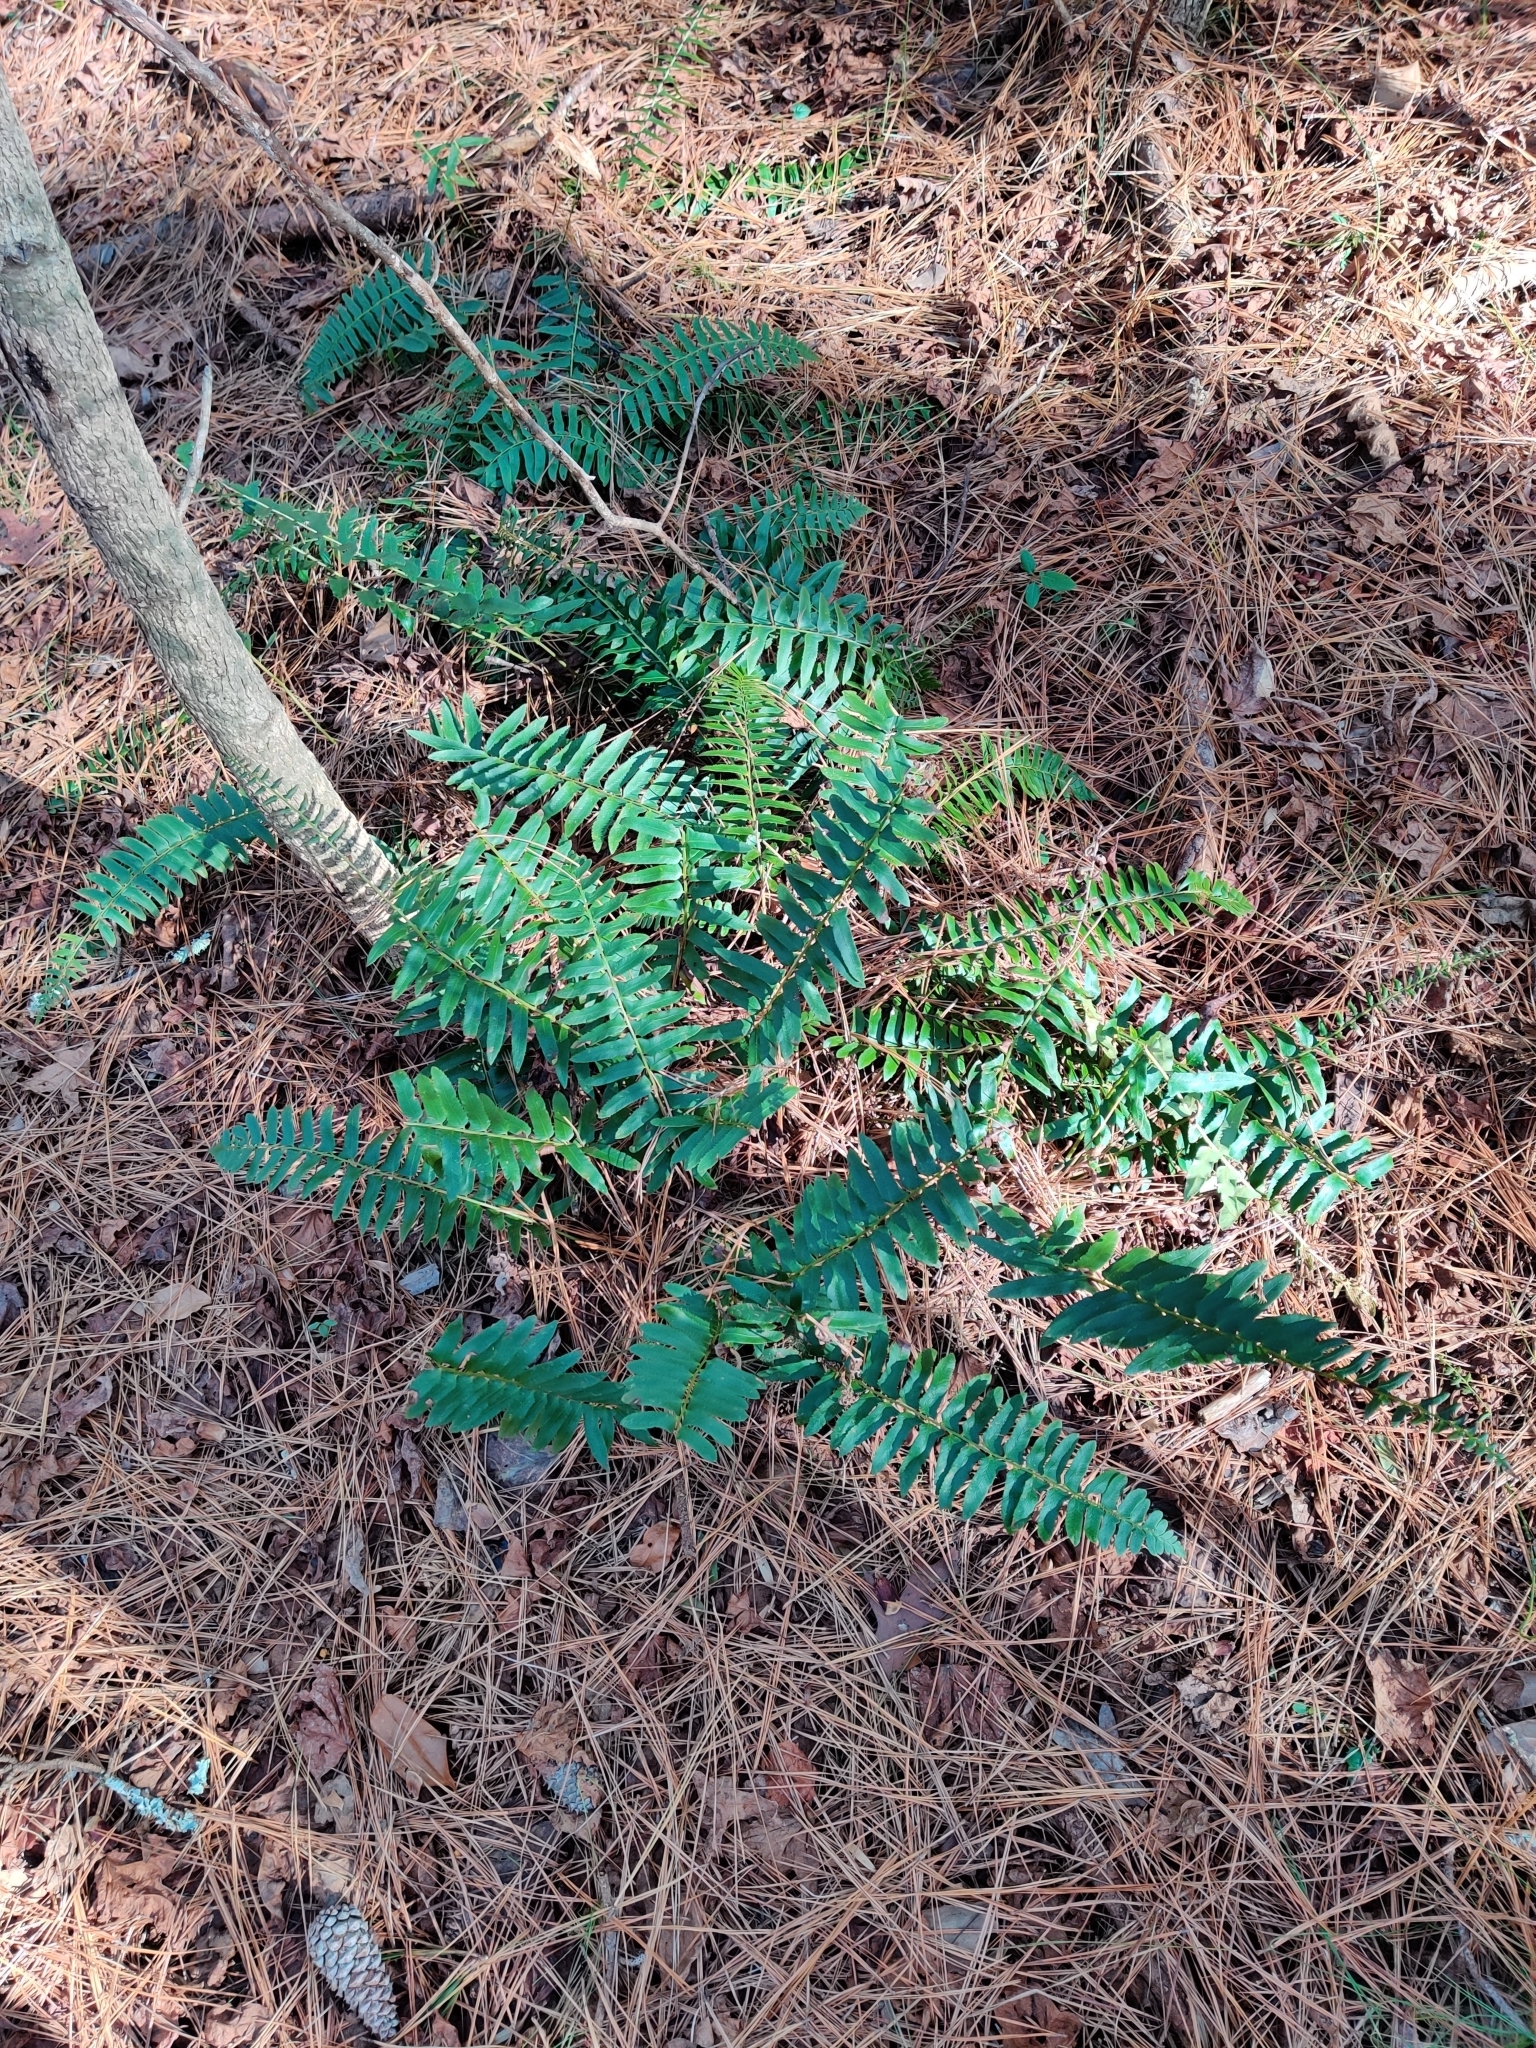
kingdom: Plantae
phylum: Tracheophyta
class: Polypodiopsida
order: Polypodiales
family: Dryopteridaceae
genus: Polystichum
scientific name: Polystichum acrostichoides
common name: Christmas fern
